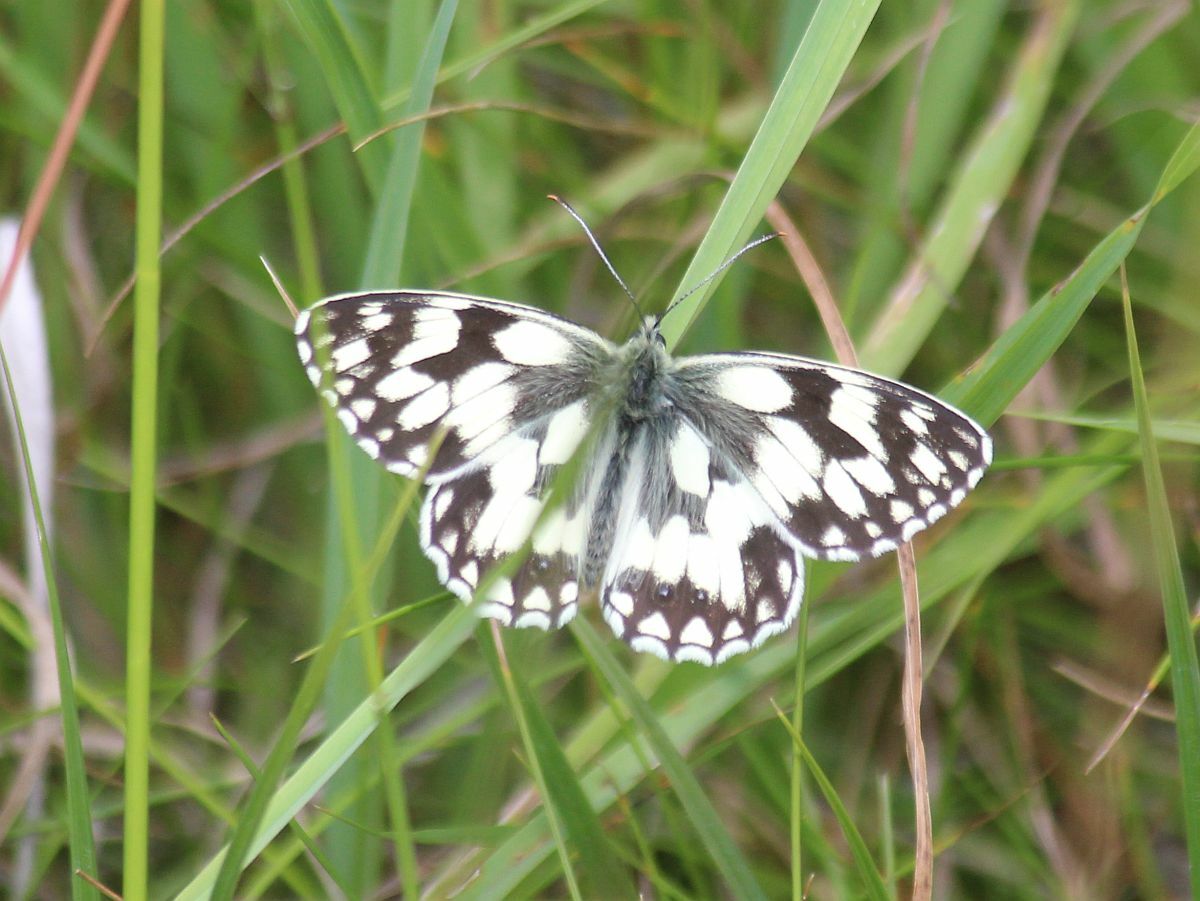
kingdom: Animalia
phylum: Arthropoda
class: Insecta
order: Lepidoptera
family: Nymphalidae
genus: Melanargia
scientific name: Melanargia galathea
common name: Marbled white
